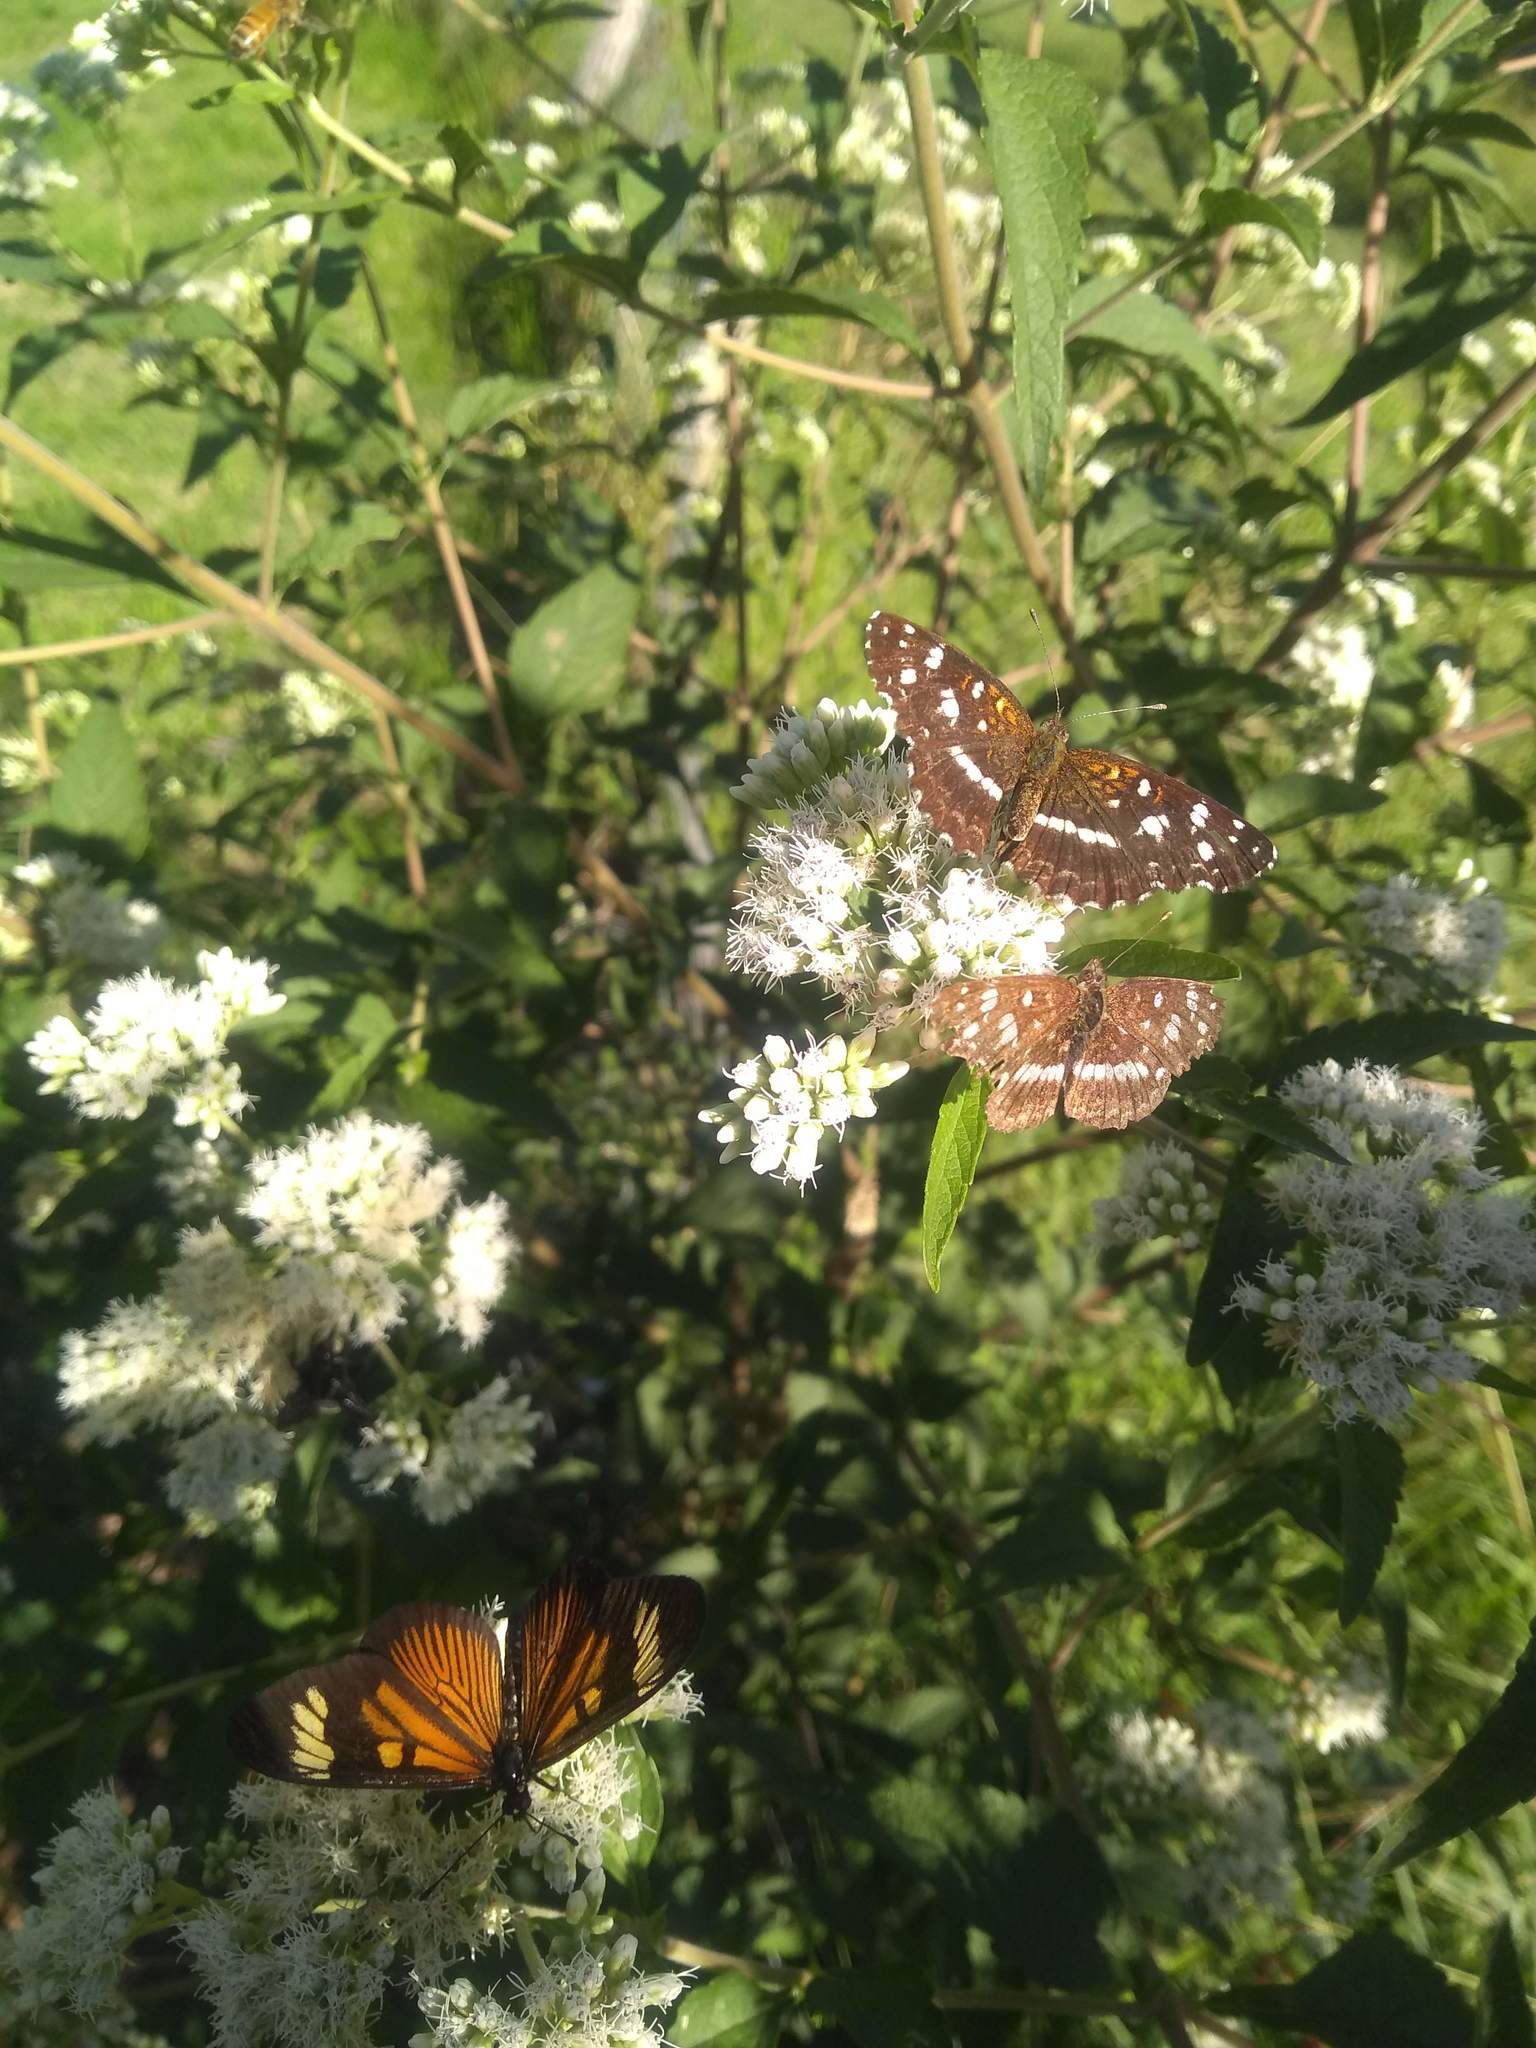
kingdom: Animalia
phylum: Arthropoda
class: Insecta
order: Lepidoptera
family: Nymphalidae
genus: Ortilia
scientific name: Ortilia ithra
